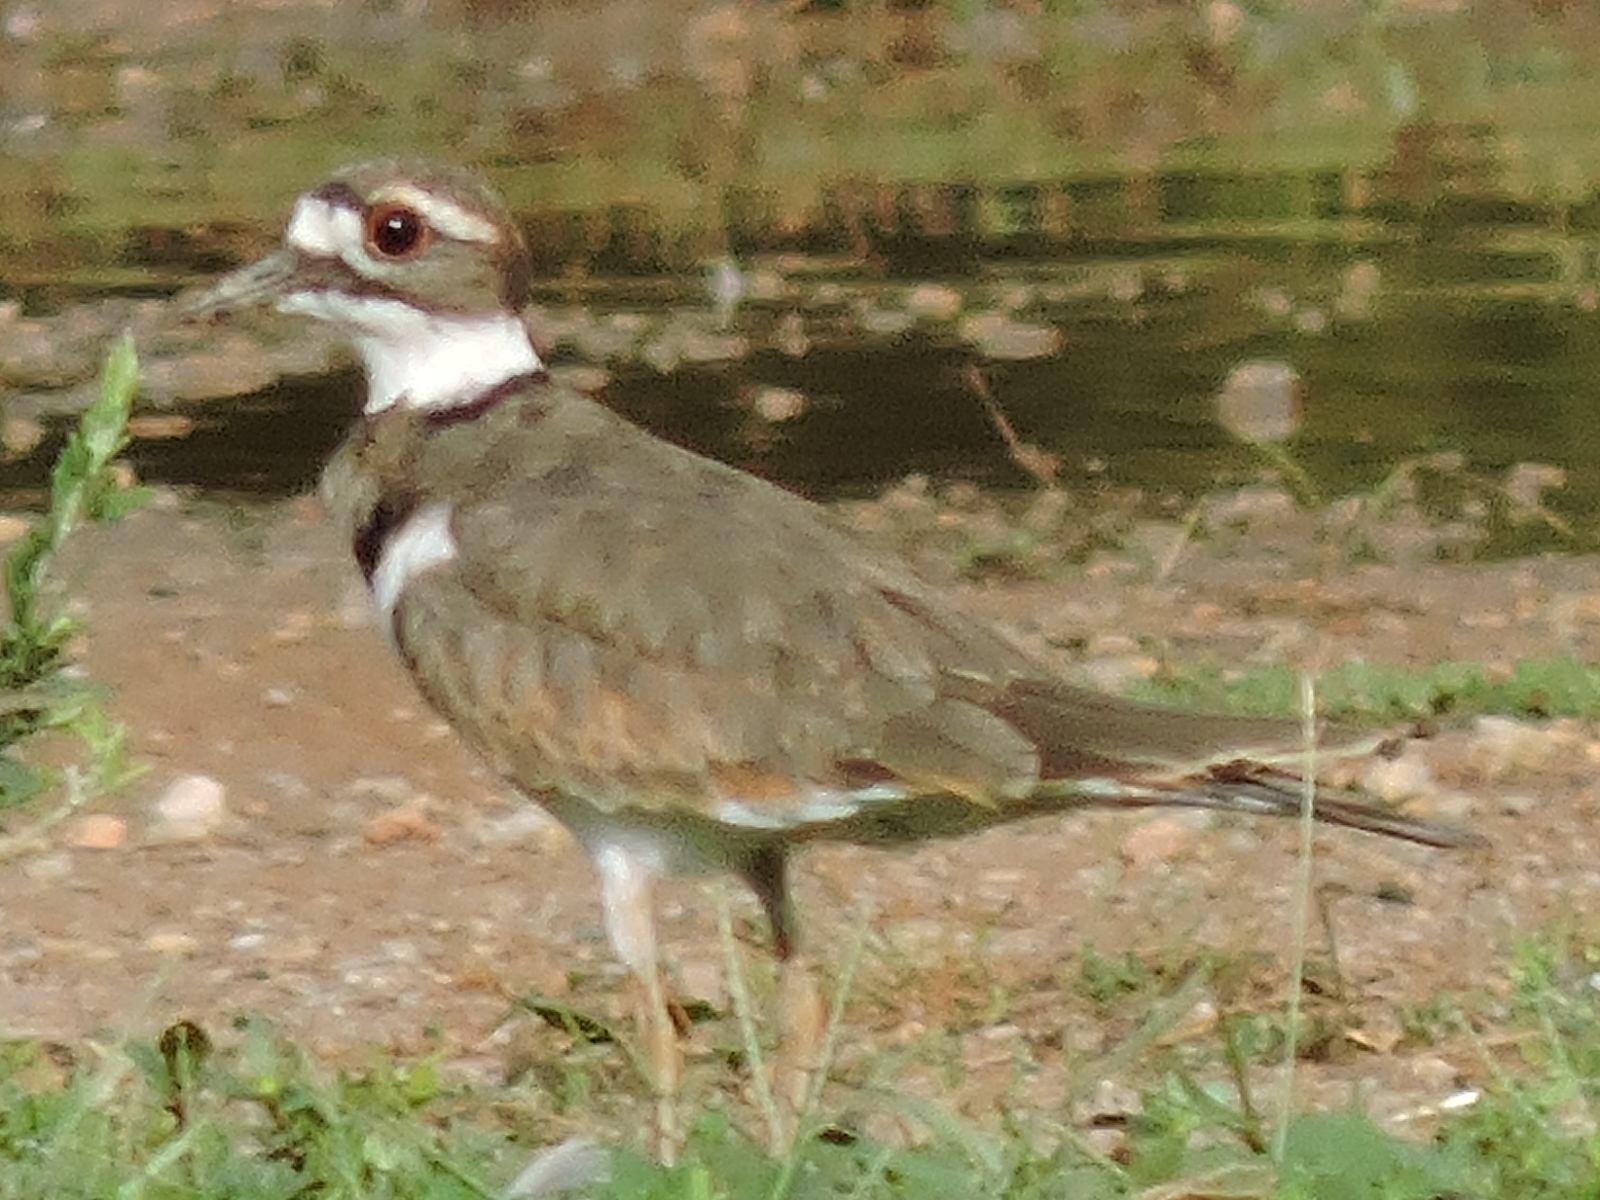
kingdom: Animalia
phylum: Chordata
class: Aves
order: Charadriiformes
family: Charadriidae
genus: Charadrius
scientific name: Charadrius vociferus
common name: Killdeer
